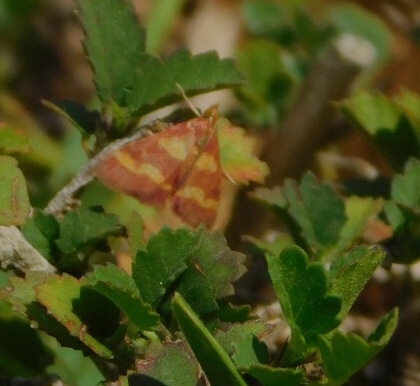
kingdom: Animalia
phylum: Arthropoda
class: Insecta
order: Lepidoptera
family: Crambidae
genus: Pyrausta
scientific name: Pyrausta tyralis
